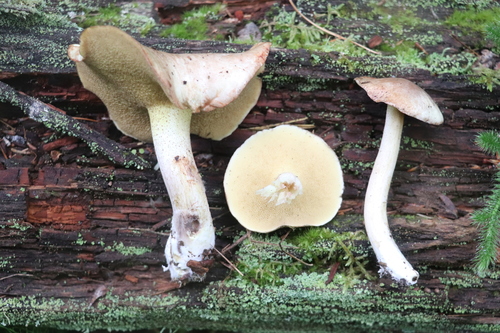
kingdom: Fungi
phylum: Basidiomycota
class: Agaricomycetes
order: Boletales
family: Suillaceae
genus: Suillus
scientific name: Suillus placidus
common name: Slippery white bolete
